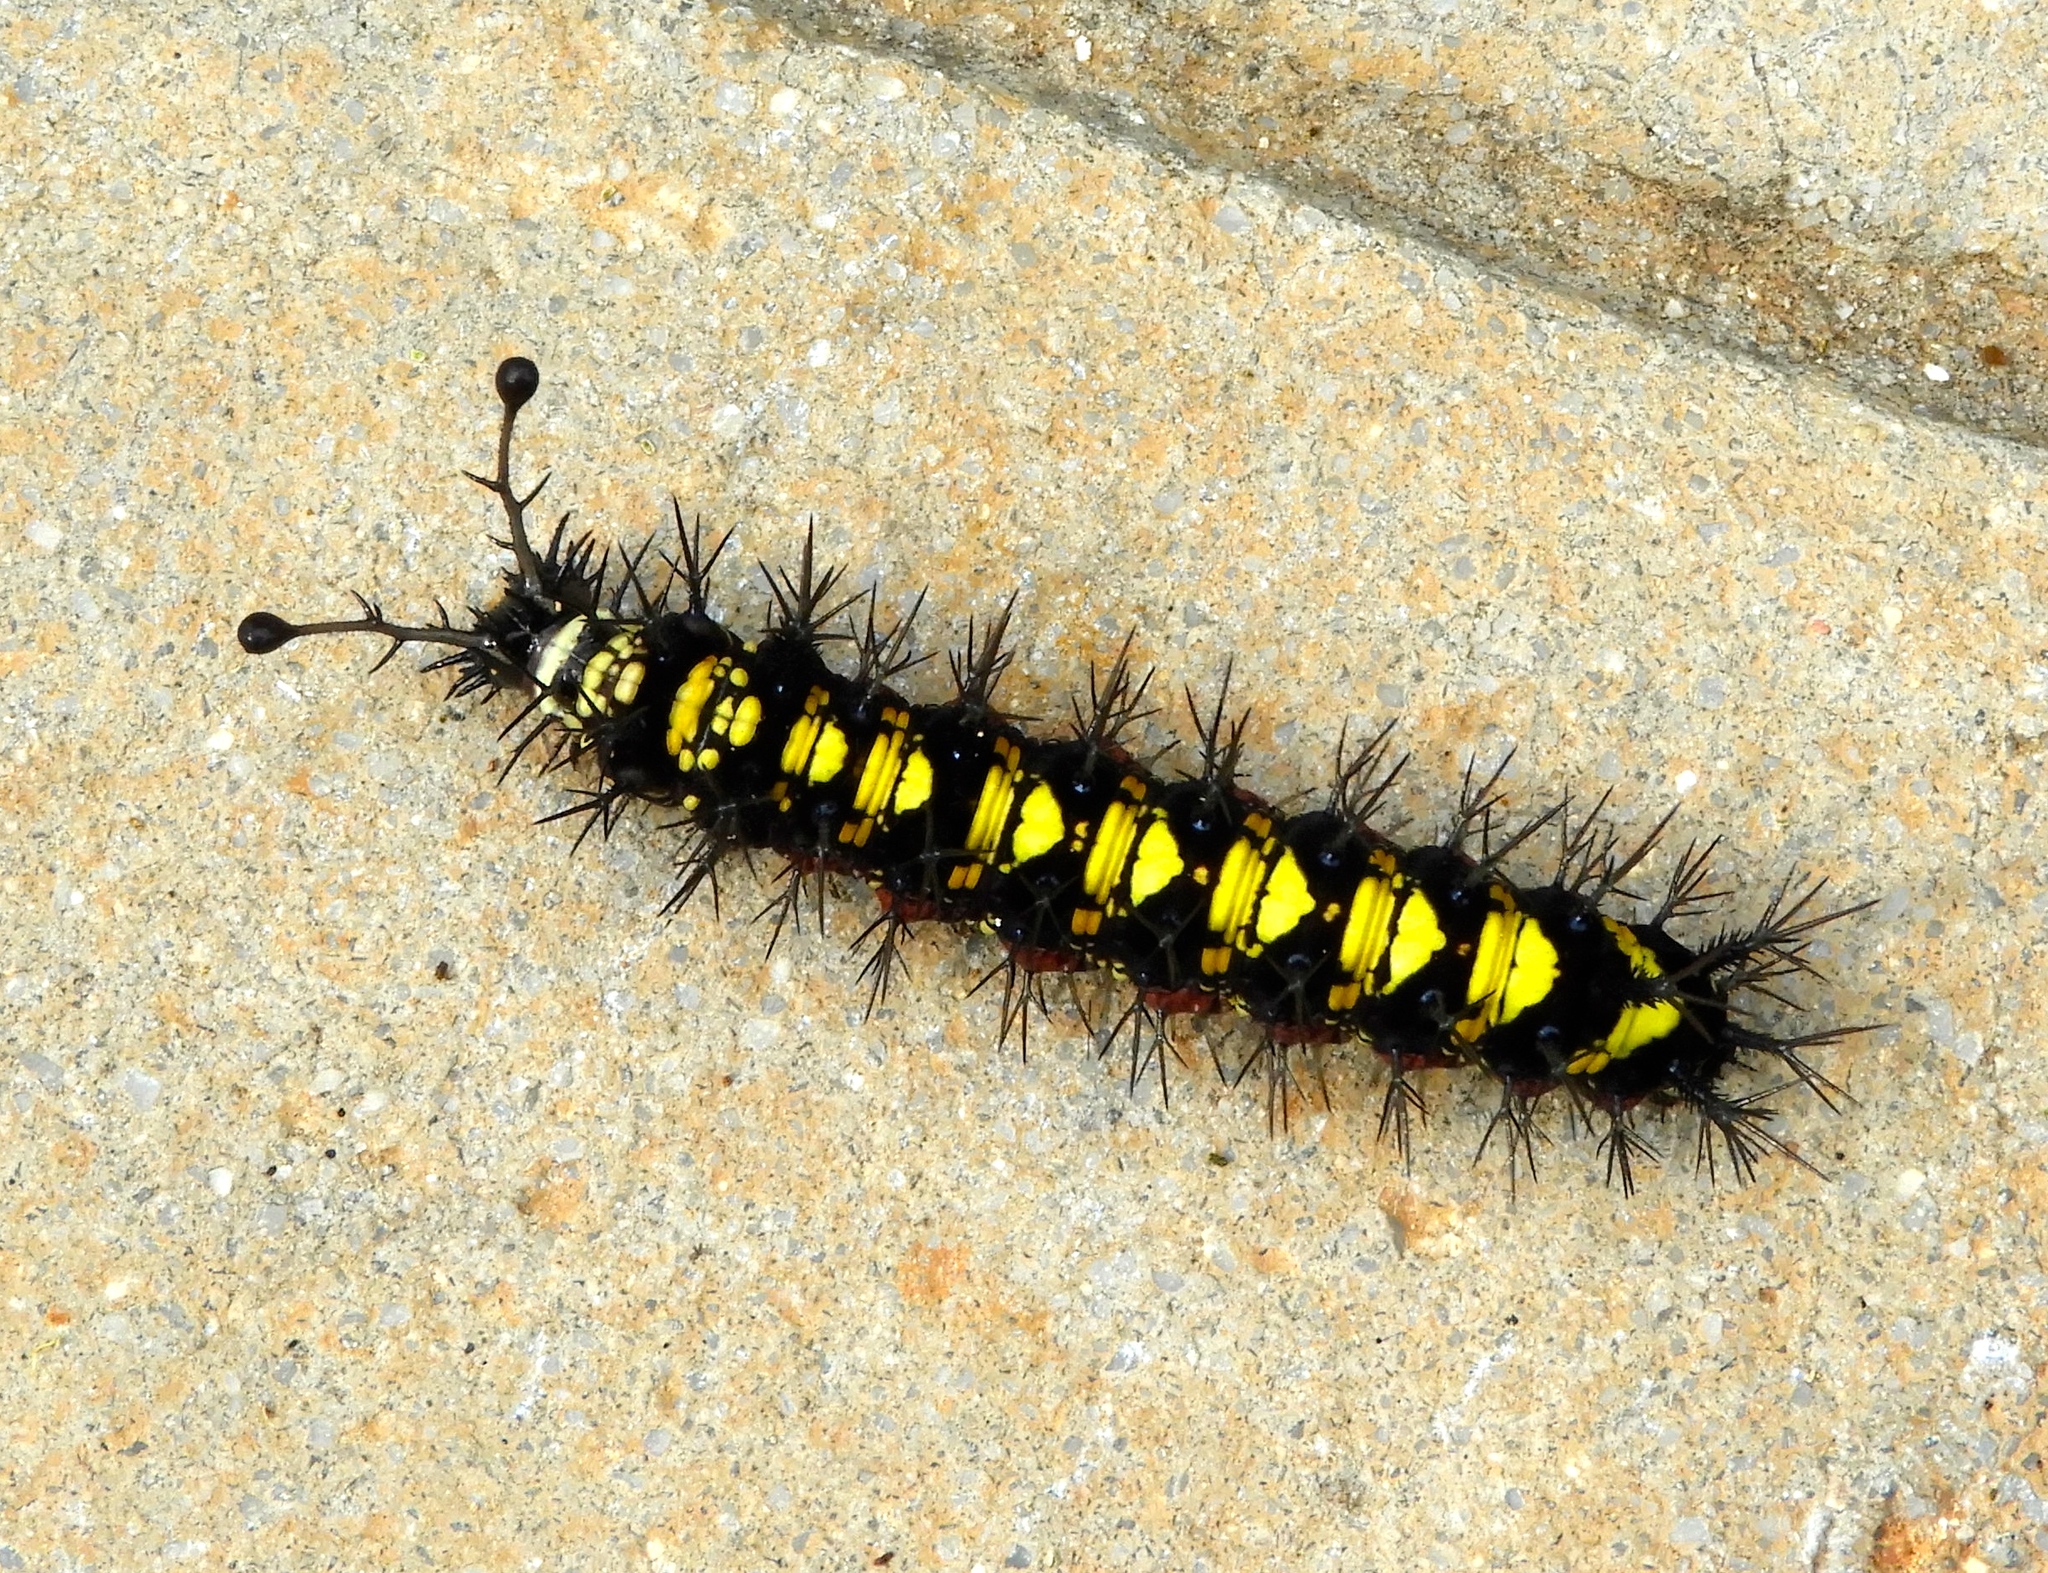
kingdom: Animalia
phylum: Arthropoda
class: Insecta
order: Lepidoptera
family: Nymphalidae
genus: Hamadryas
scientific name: Hamadryas guatemalena
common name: Guatemalan cracker
